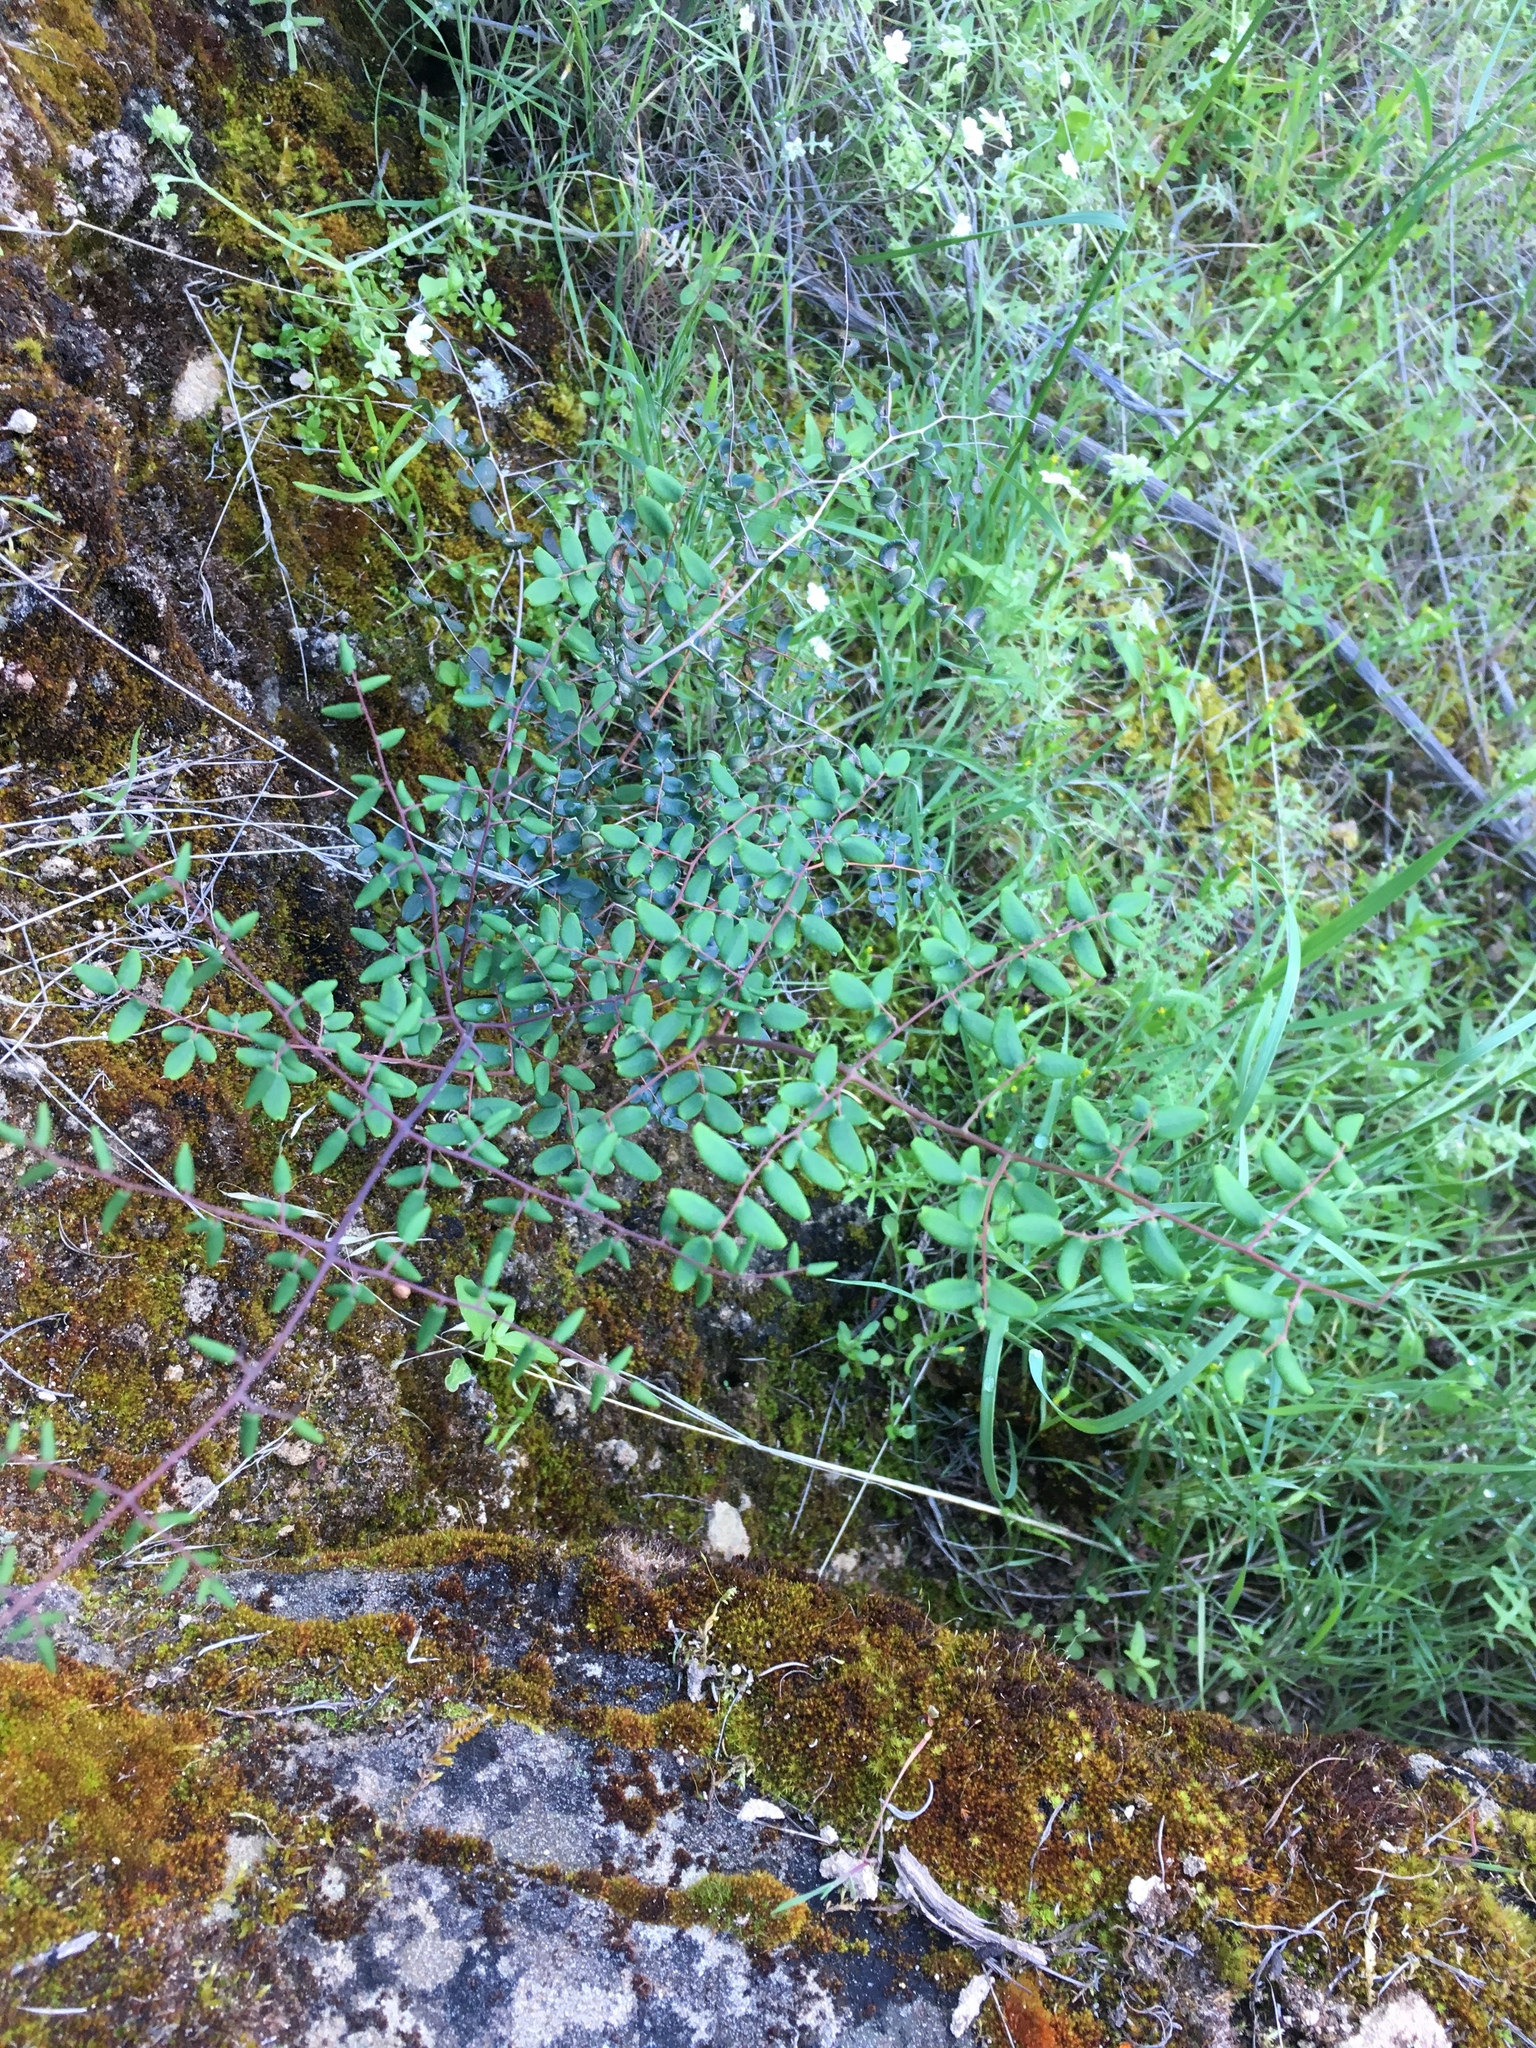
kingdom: Plantae
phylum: Tracheophyta
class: Polypodiopsida
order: Polypodiales
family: Pteridaceae
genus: Pellaea
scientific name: Pellaea andromedifolia
